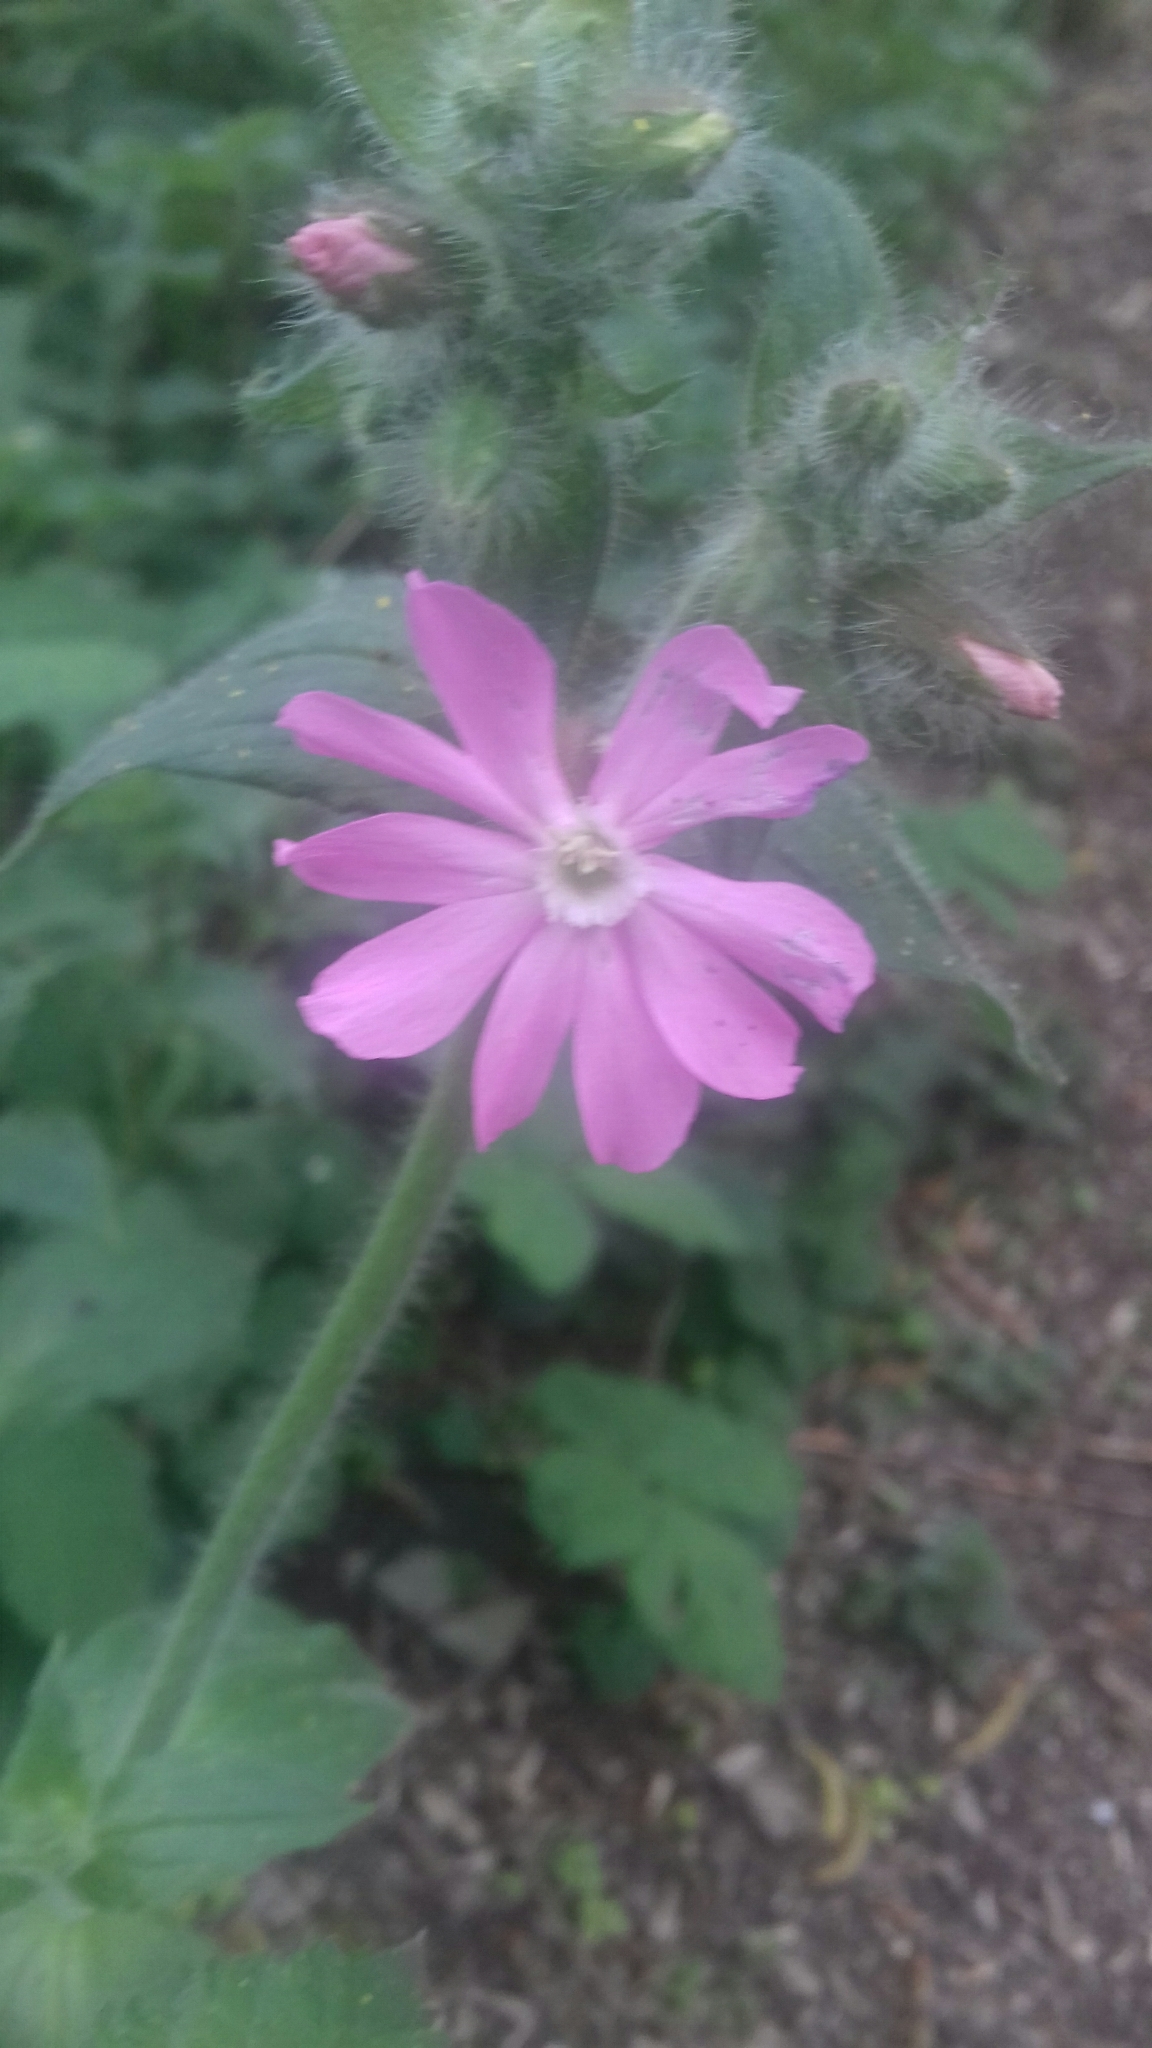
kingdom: Plantae
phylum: Tracheophyta
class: Magnoliopsida
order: Caryophyllales
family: Caryophyllaceae
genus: Silene
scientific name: Silene dioica
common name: Red campion
